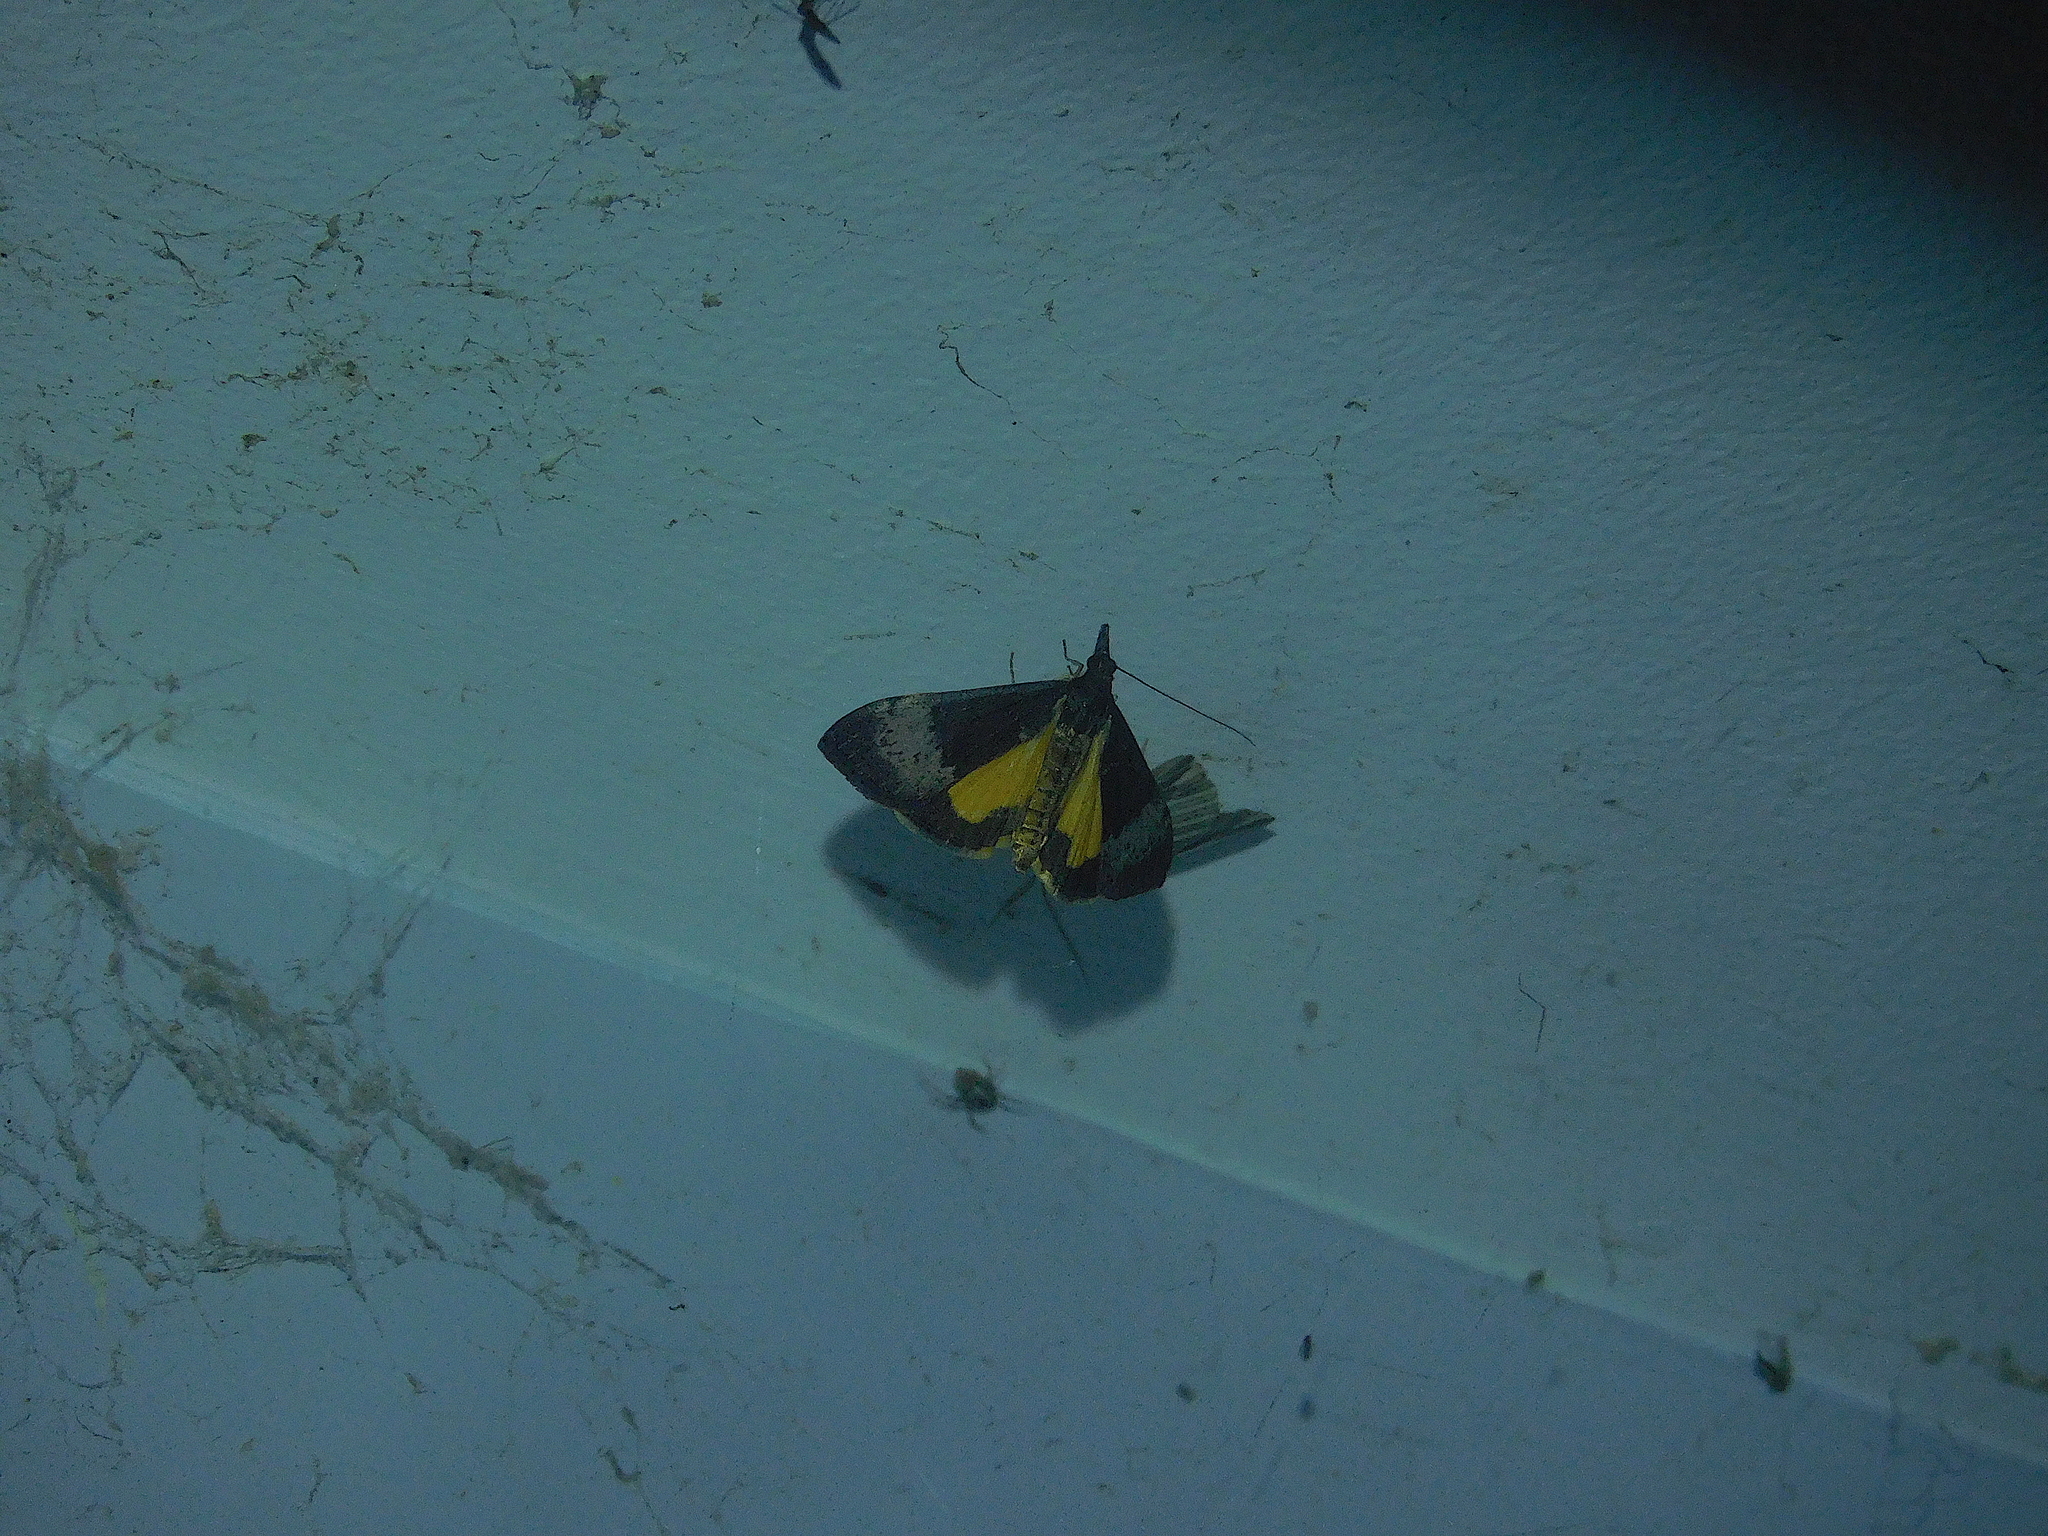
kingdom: Animalia
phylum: Arthropoda
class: Insecta
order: Lepidoptera
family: Crambidae
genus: Uresiphita
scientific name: Uresiphita ornithopteralis
